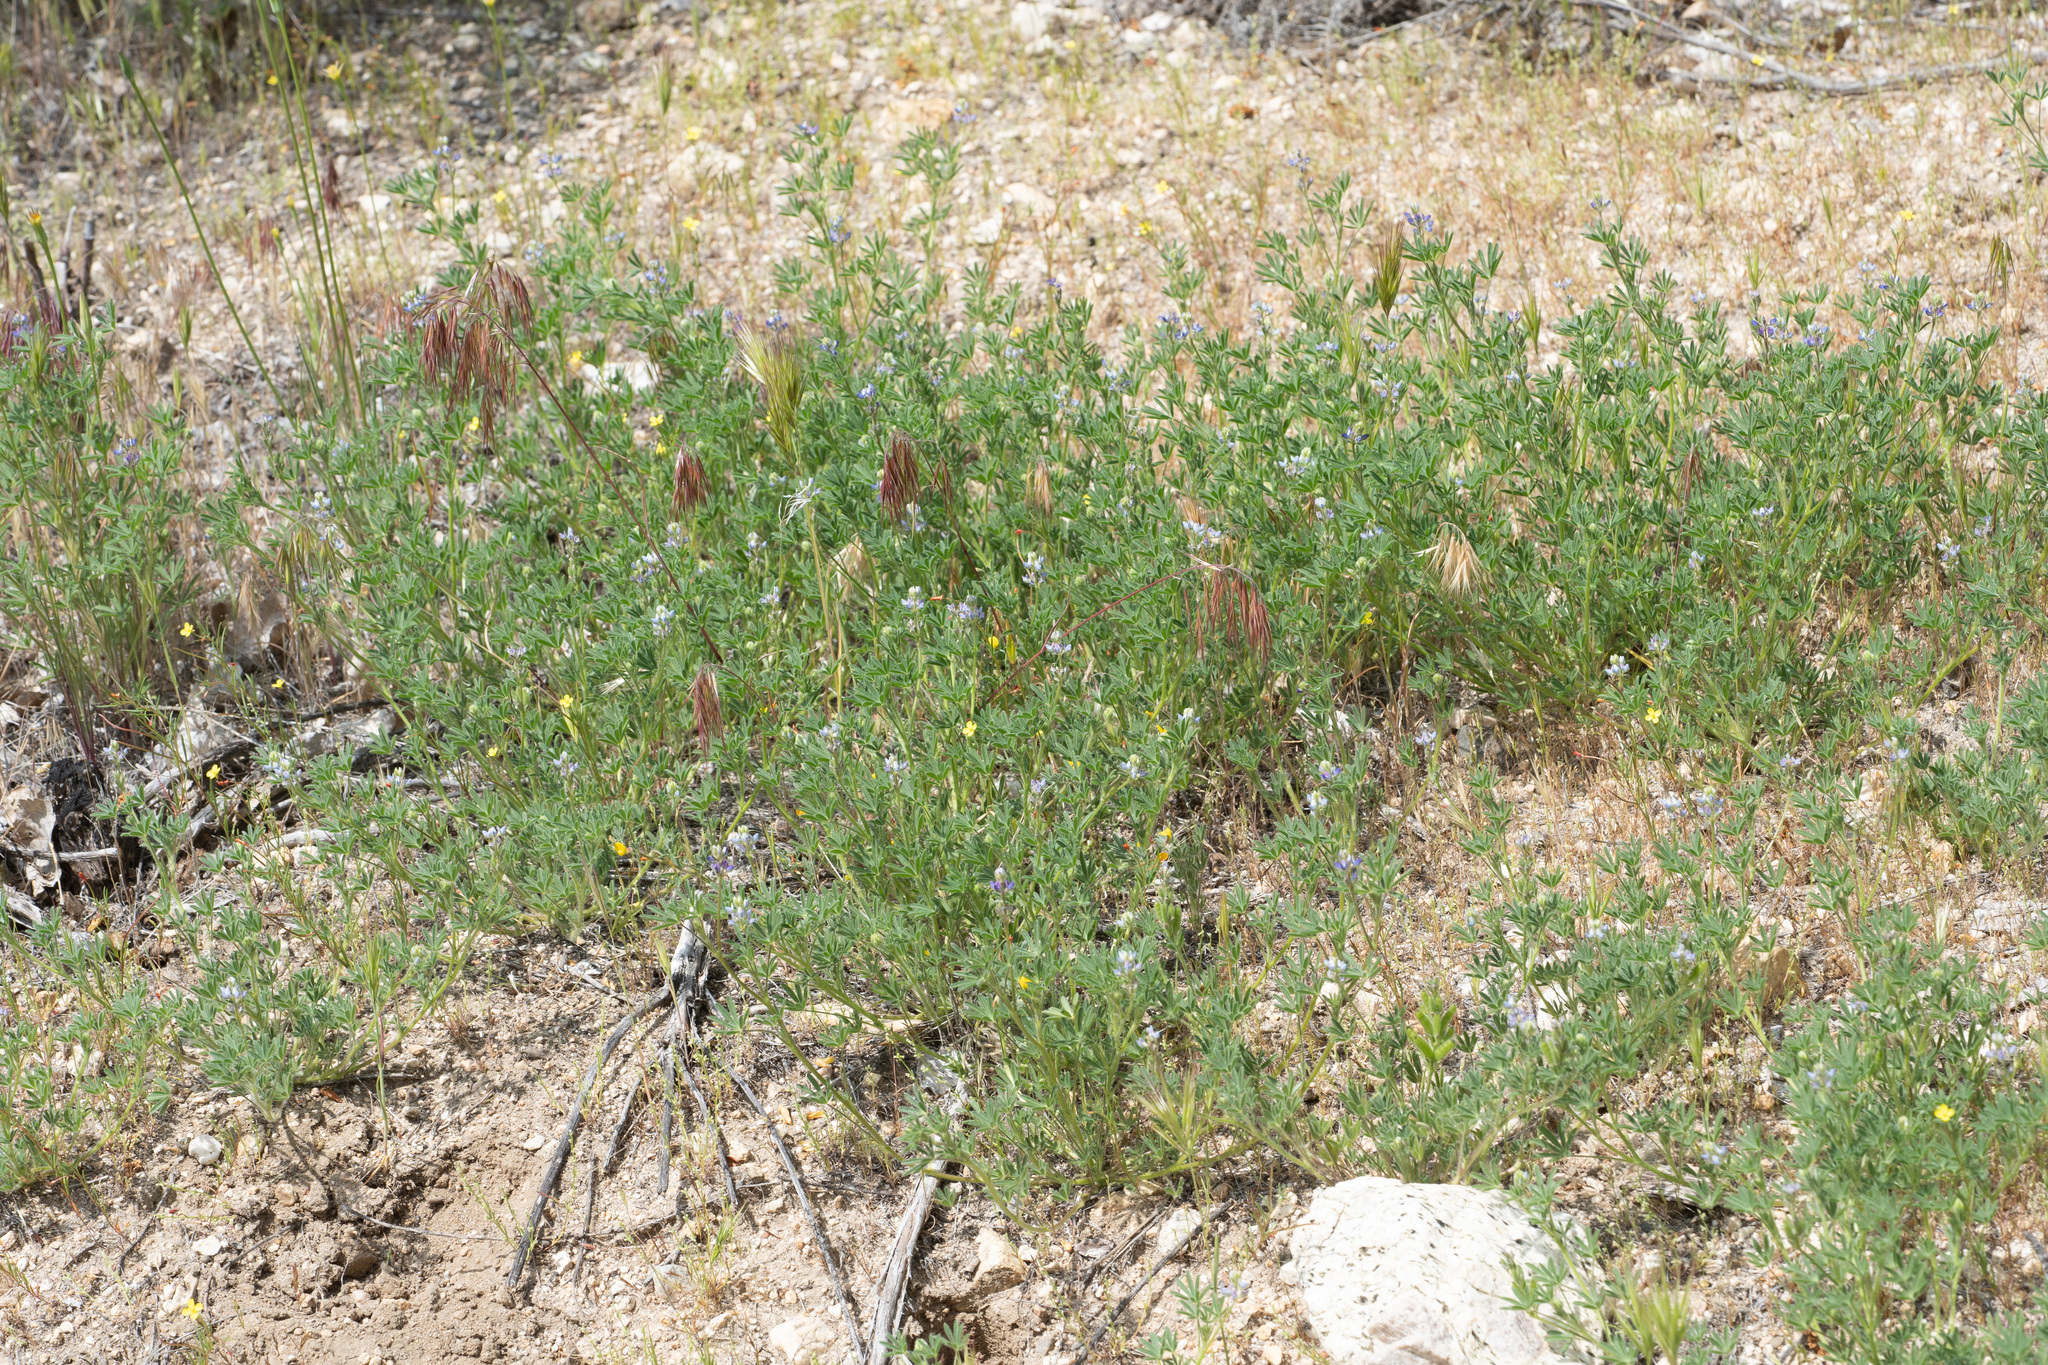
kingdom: Plantae
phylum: Tracheophyta
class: Magnoliopsida
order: Fabales
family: Fabaceae
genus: Lupinus
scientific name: Lupinus bicolor
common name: Miniature lupine
